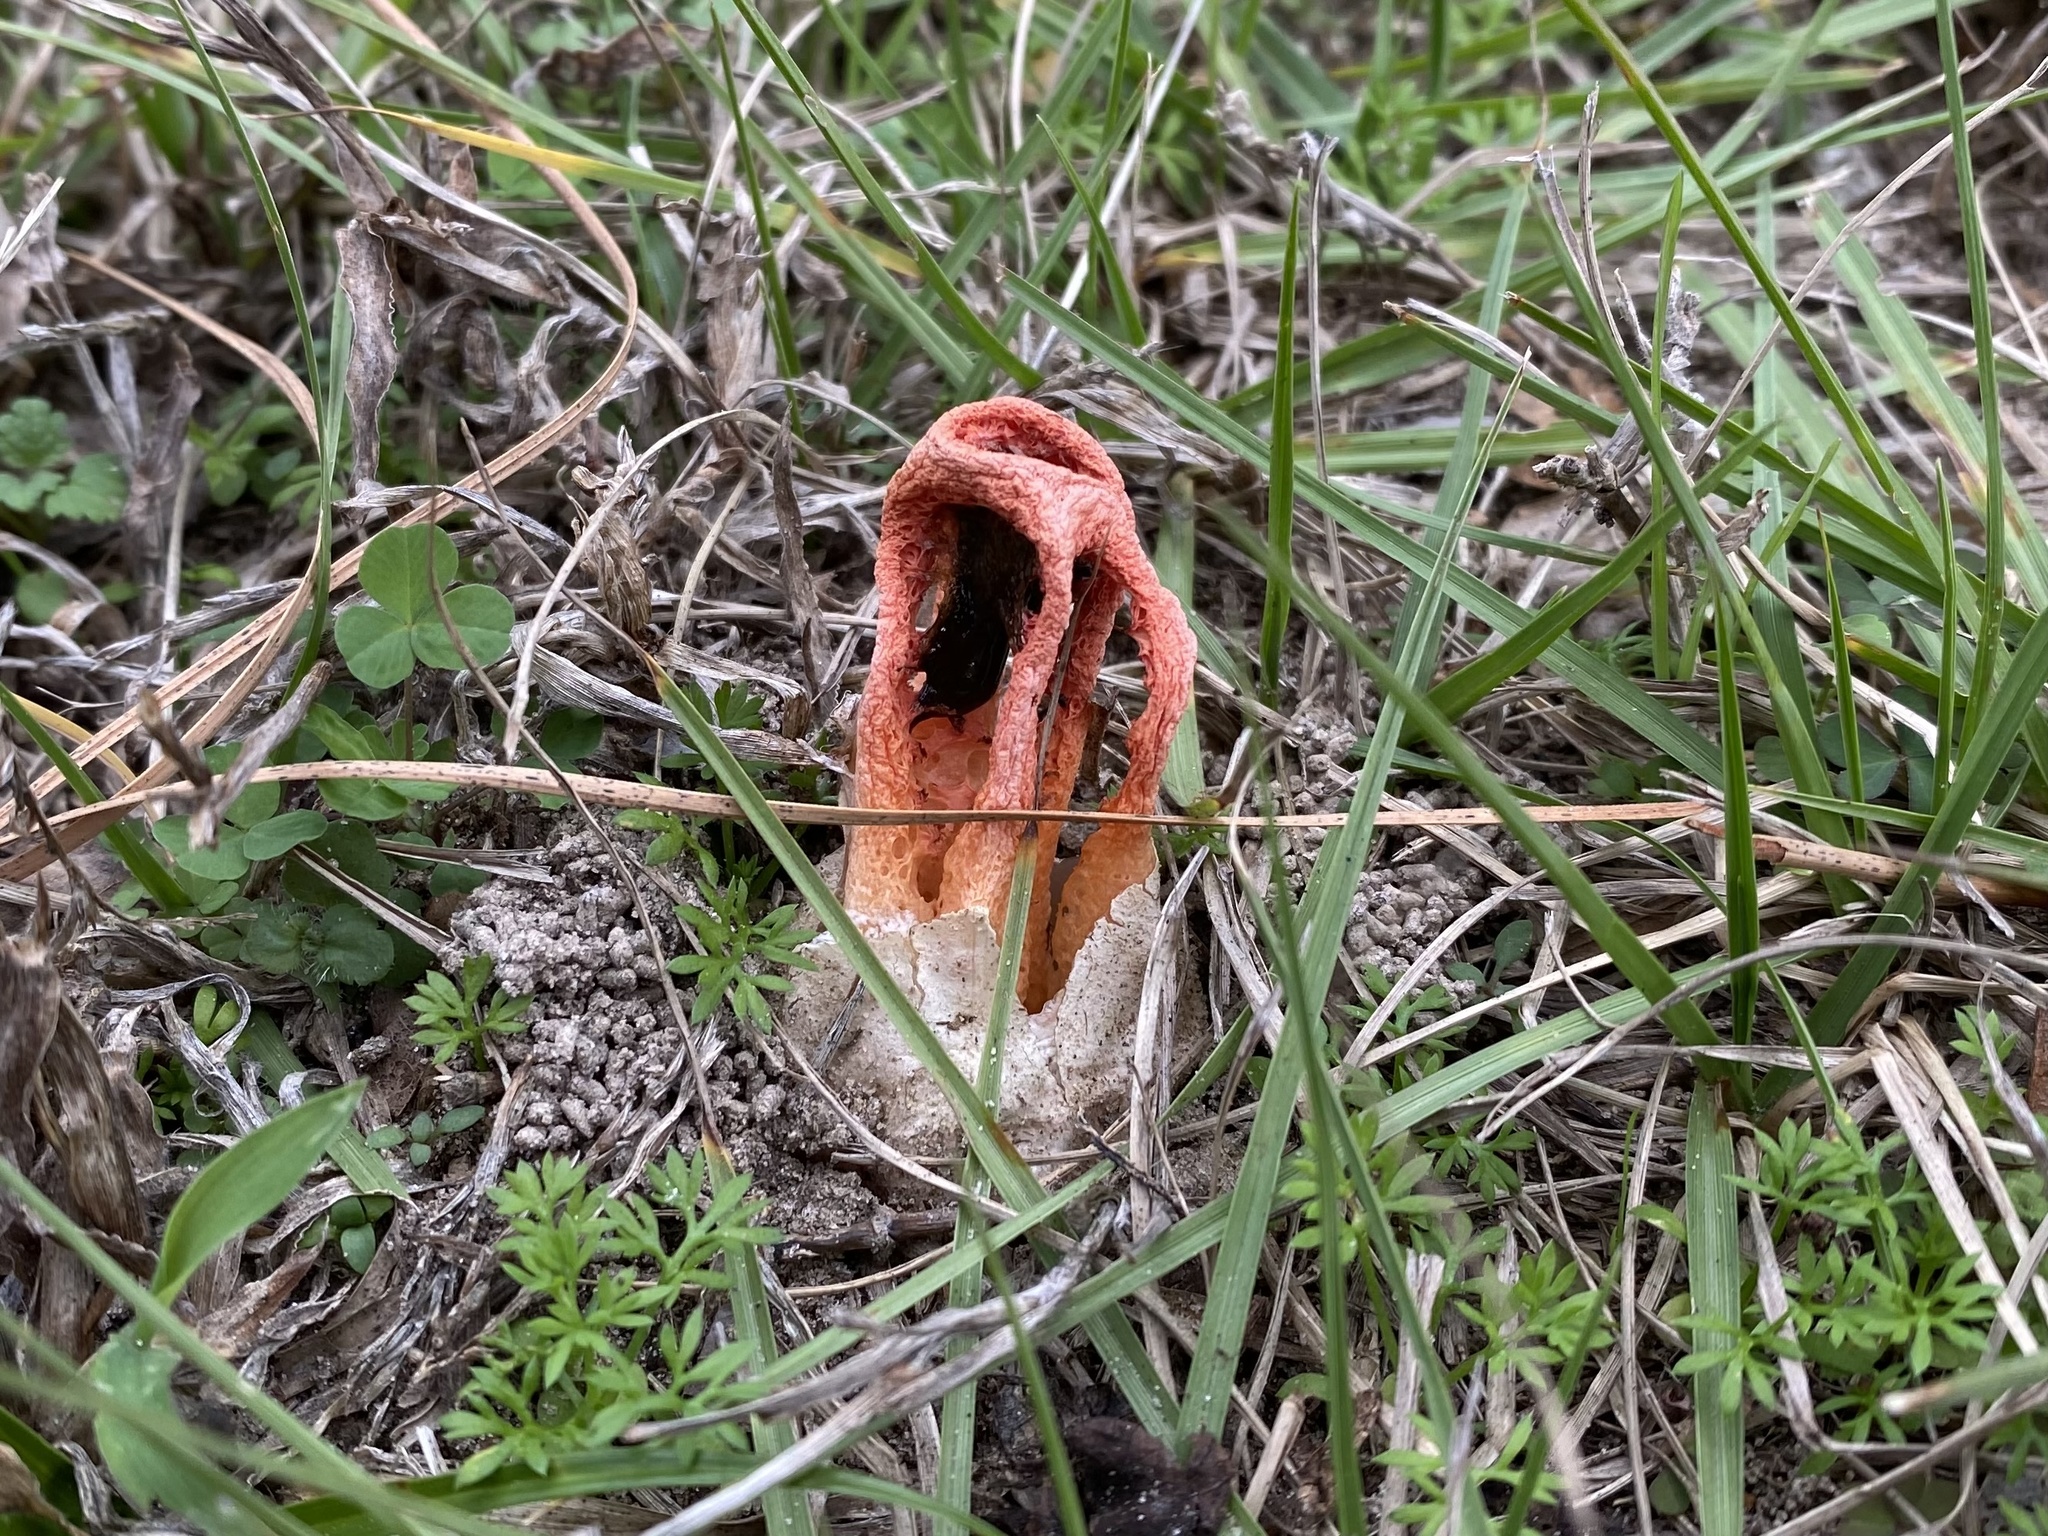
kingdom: Fungi
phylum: Basidiomycota
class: Agaricomycetes
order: Phallales
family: Phallaceae
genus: Clathrus
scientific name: Clathrus columnatus
